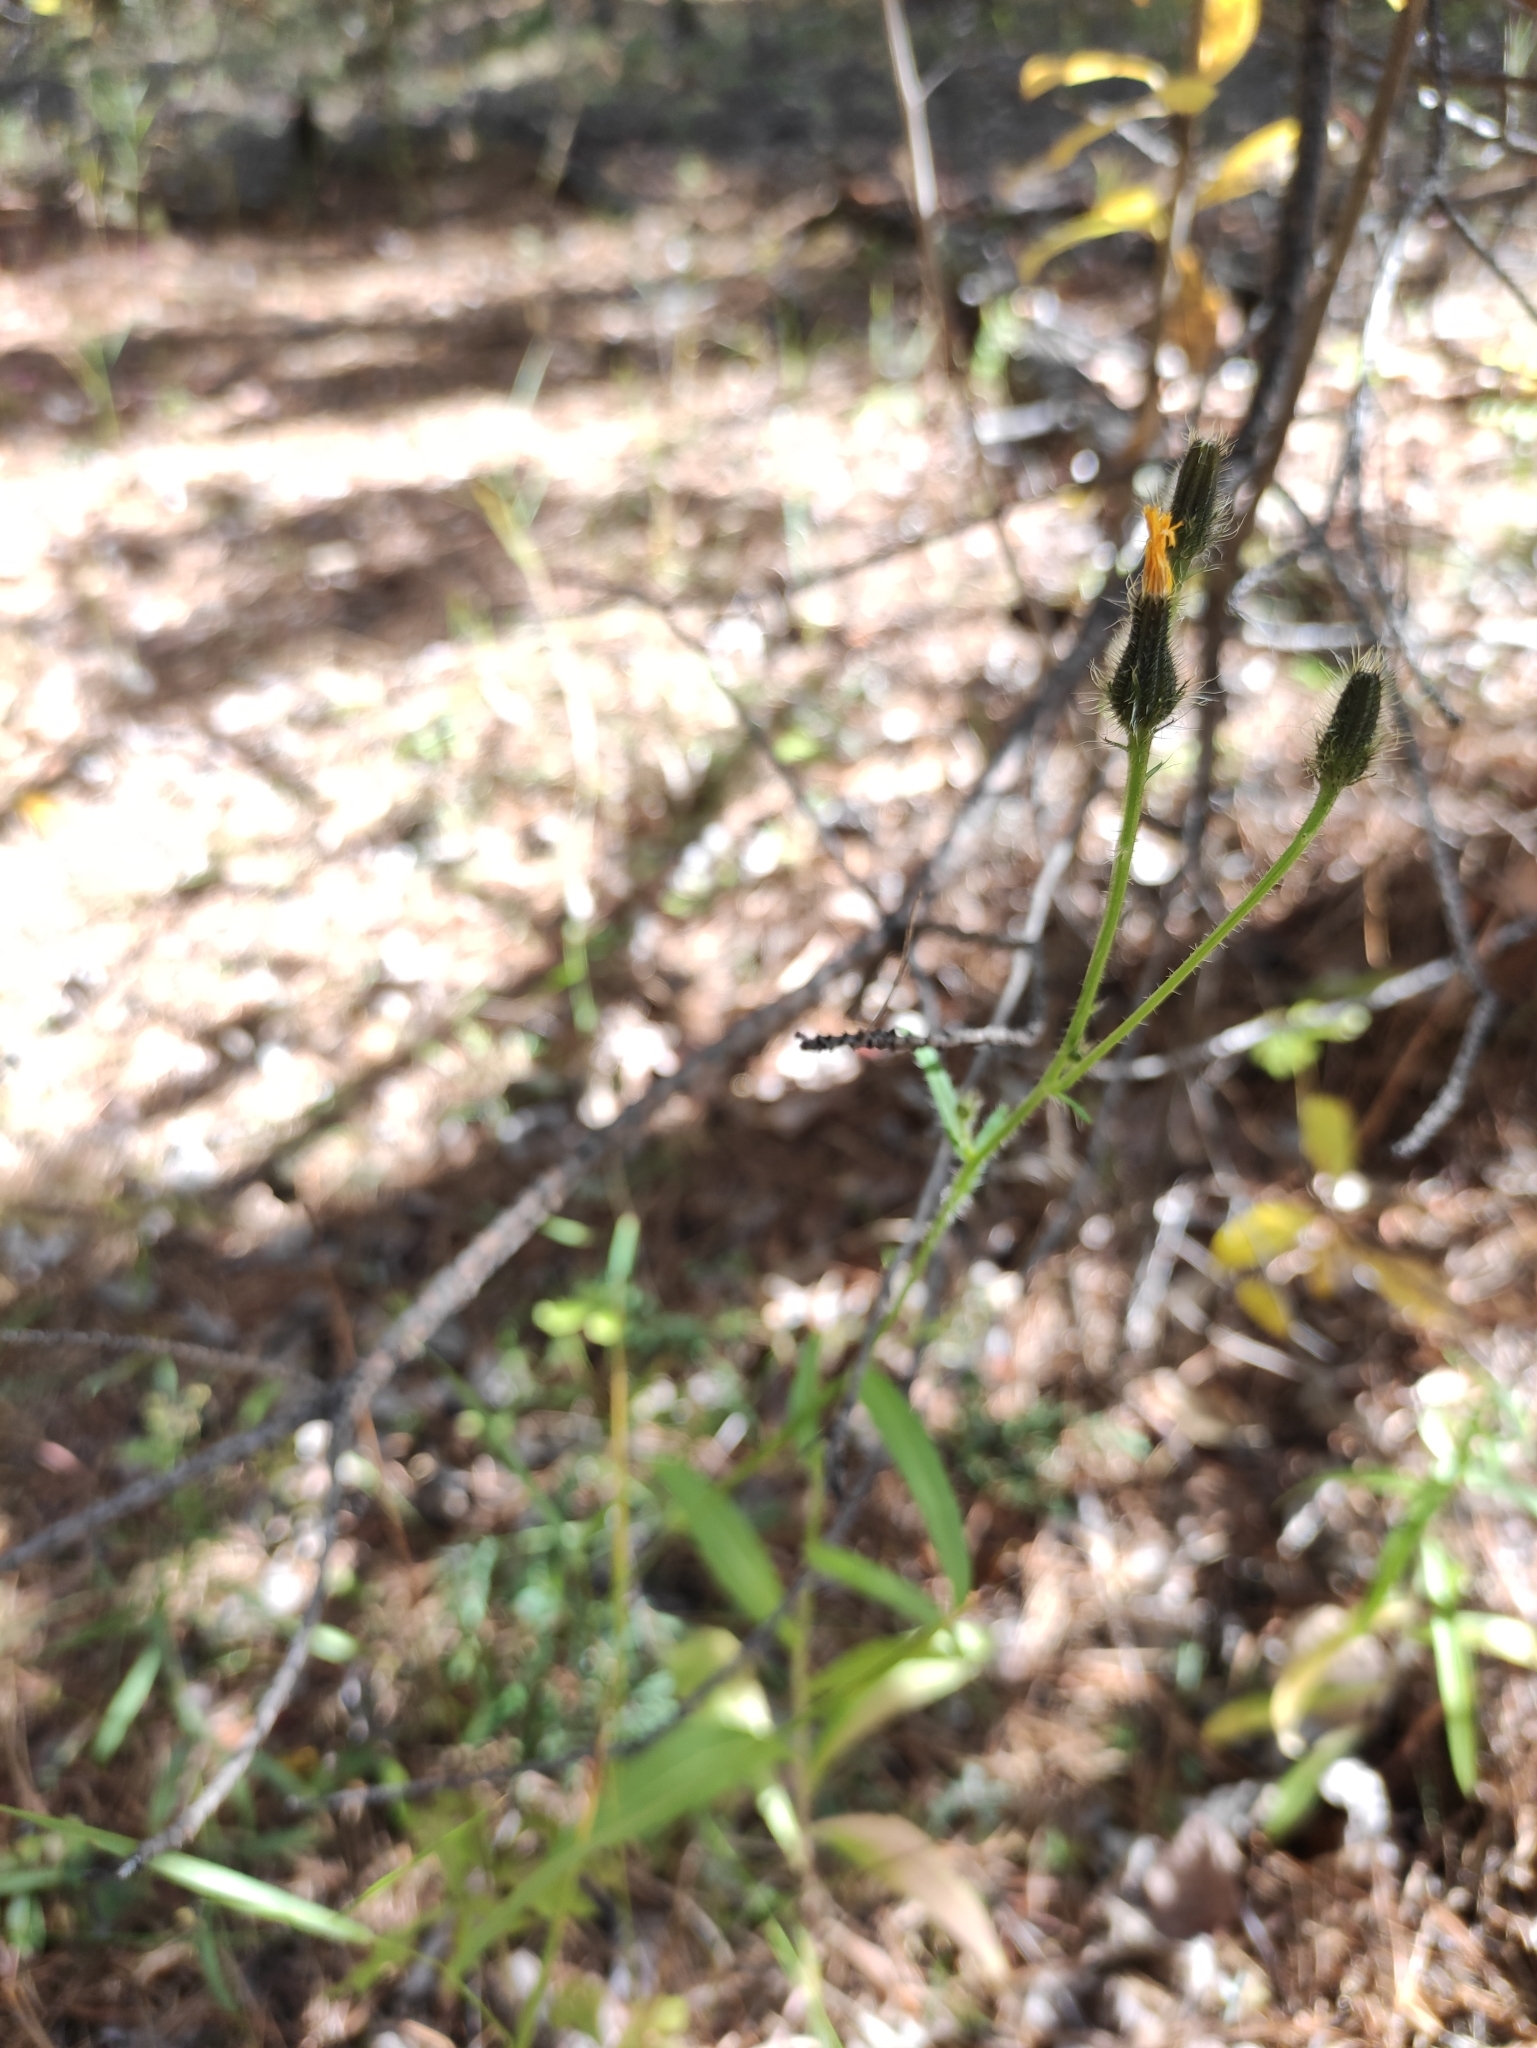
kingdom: Plantae
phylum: Tracheophyta
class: Magnoliopsida
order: Asterales
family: Asteraceae
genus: Picris
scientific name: Picris davurica
